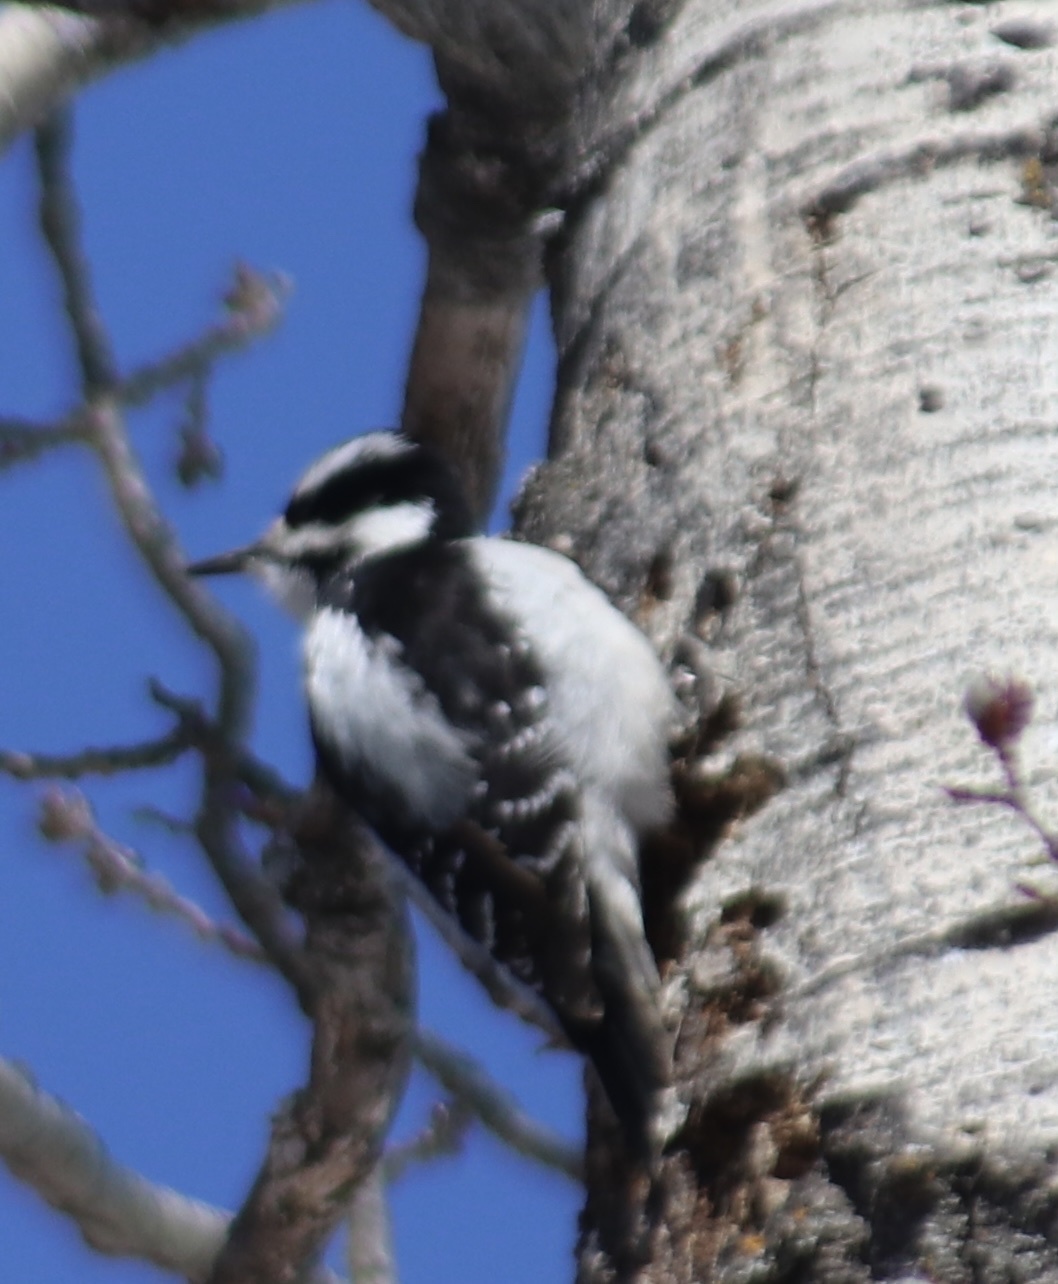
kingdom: Animalia
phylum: Chordata
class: Aves
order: Piciformes
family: Picidae
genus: Leuconotopicus
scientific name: Leuconotopicus villosus
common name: Hairy woodpecker
